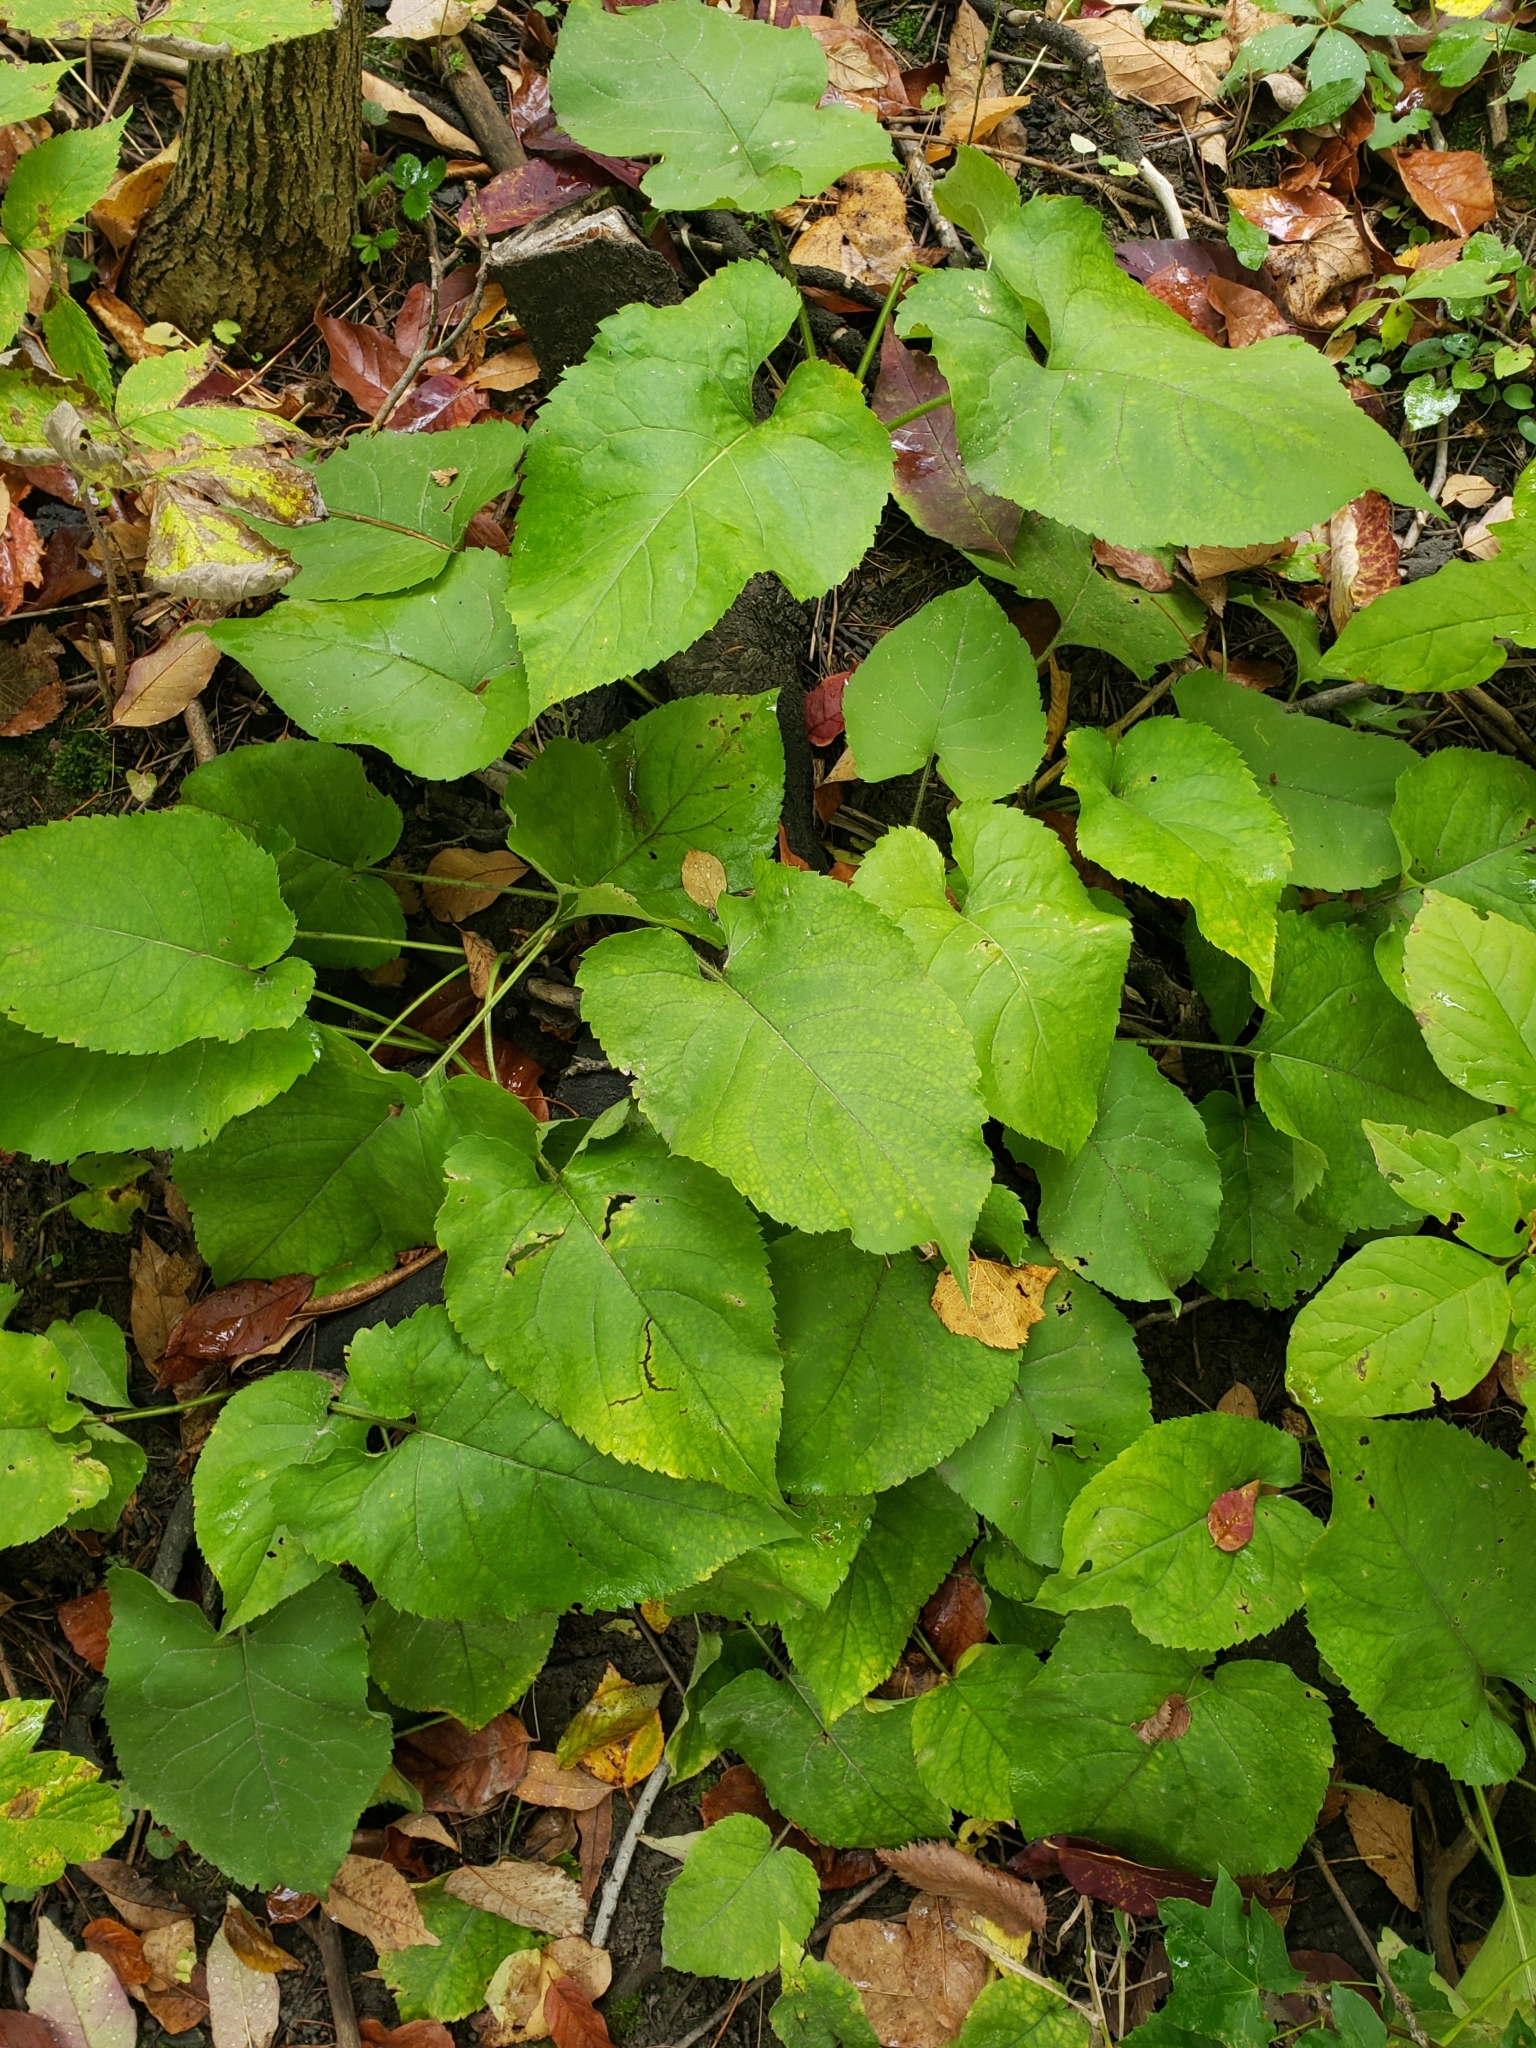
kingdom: Plantae
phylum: Tracheophyta
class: Magnoliopsida
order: Asterales
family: Asteraceae
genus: Eurybia
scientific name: Eurybia macrophylla
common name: Big-leaved aster
